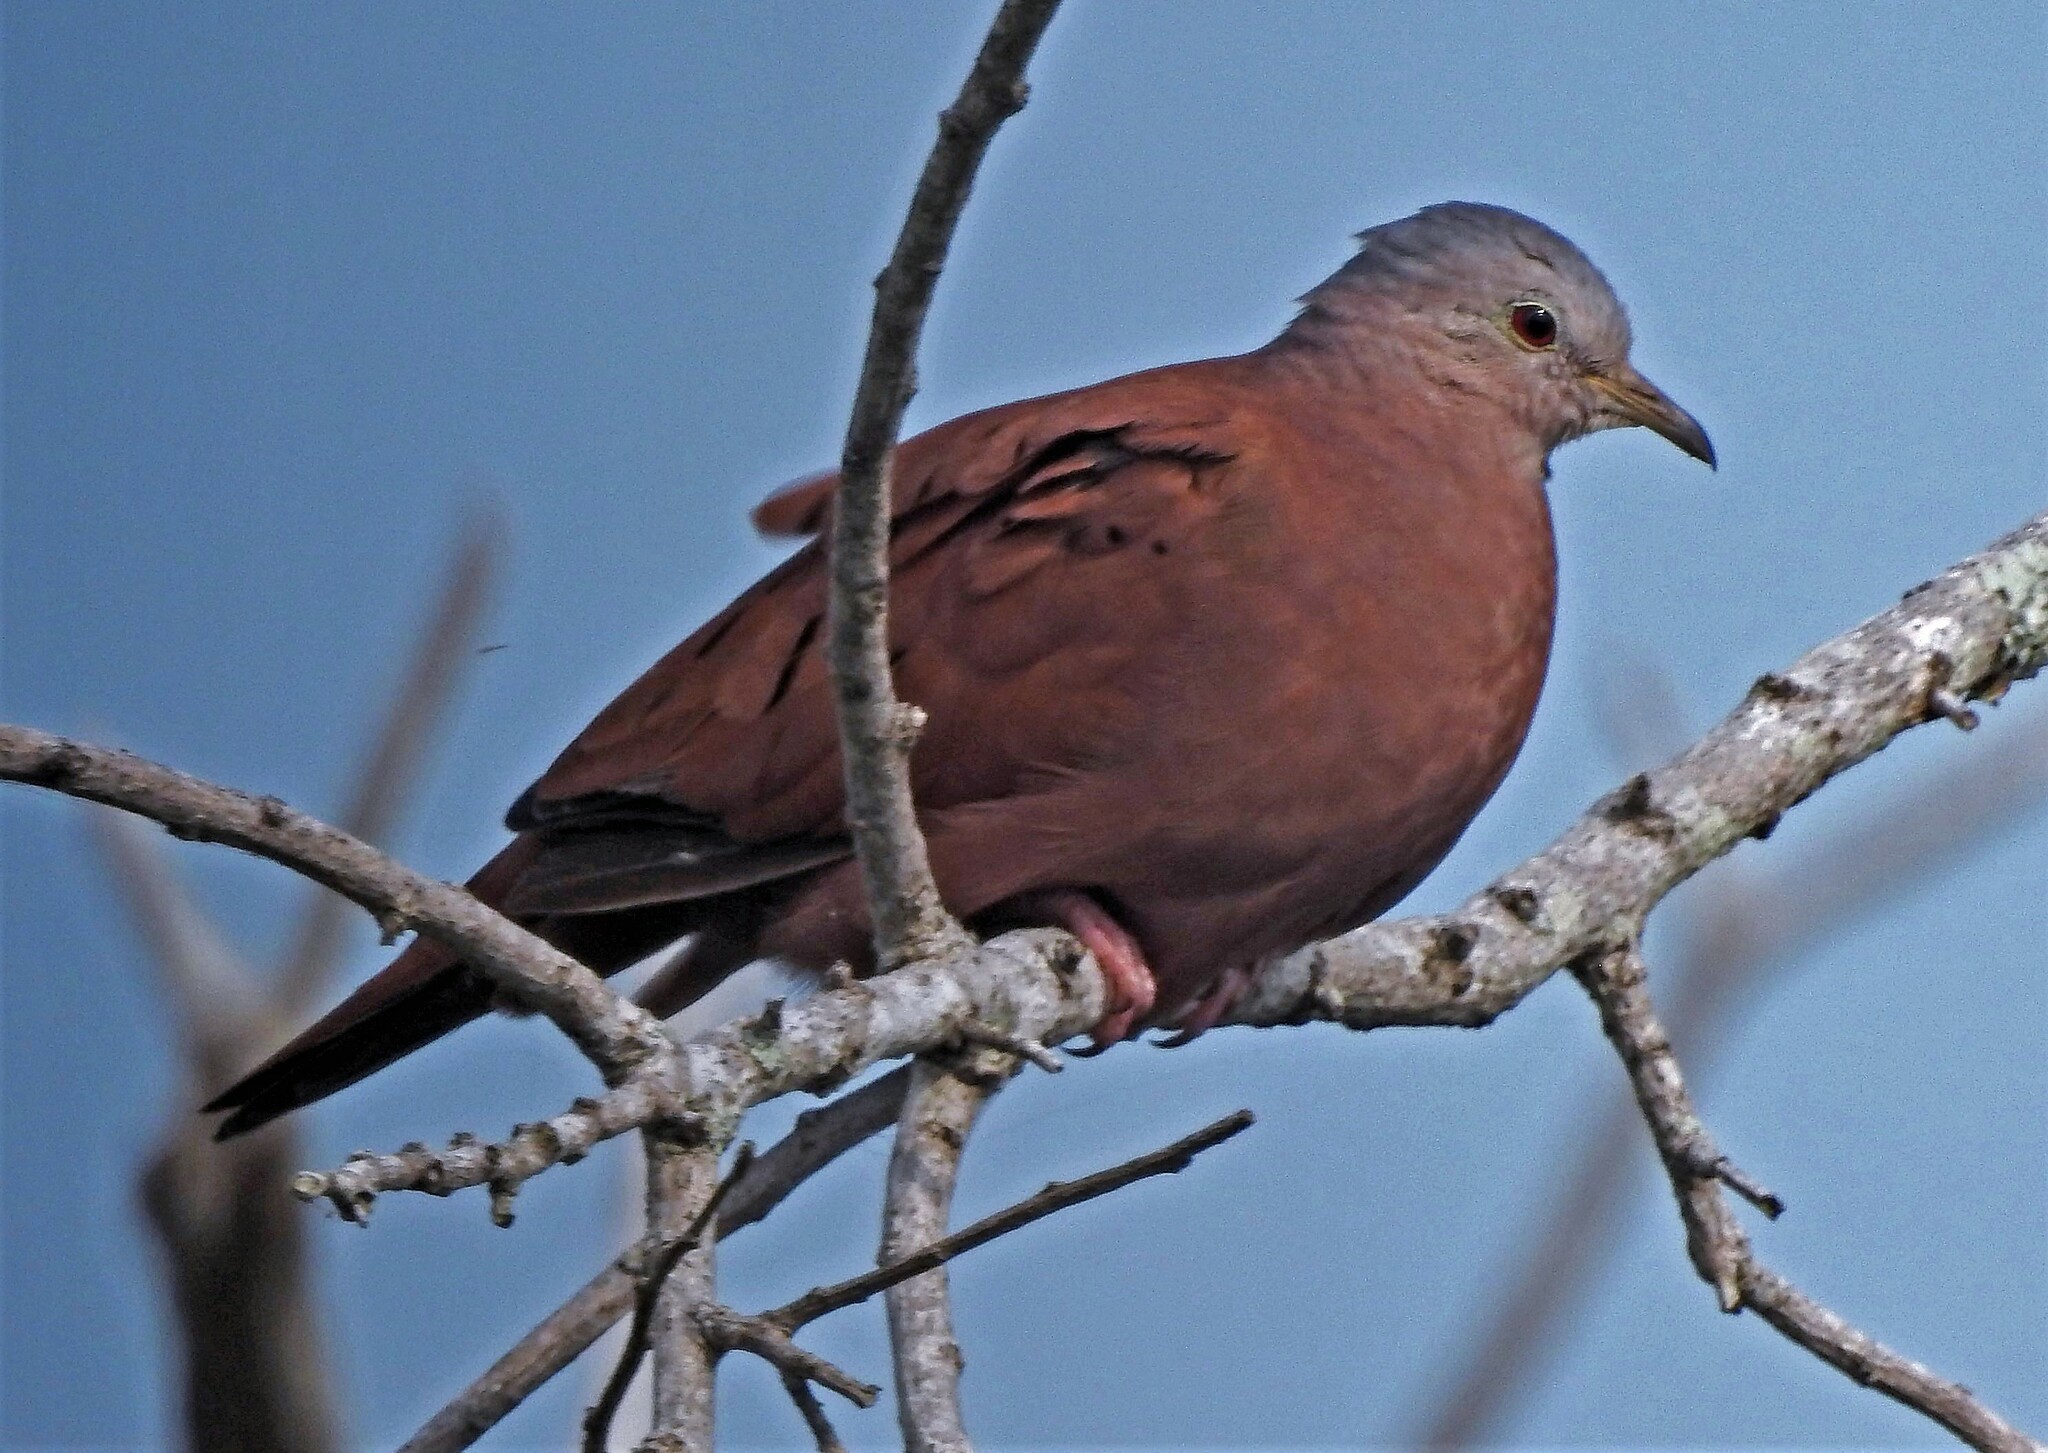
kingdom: Animalia
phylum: Chordata
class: Aves
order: Columbiformes
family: Columbidae
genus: Columbina
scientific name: Columbina talpacoti
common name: Ruddy ground dove
